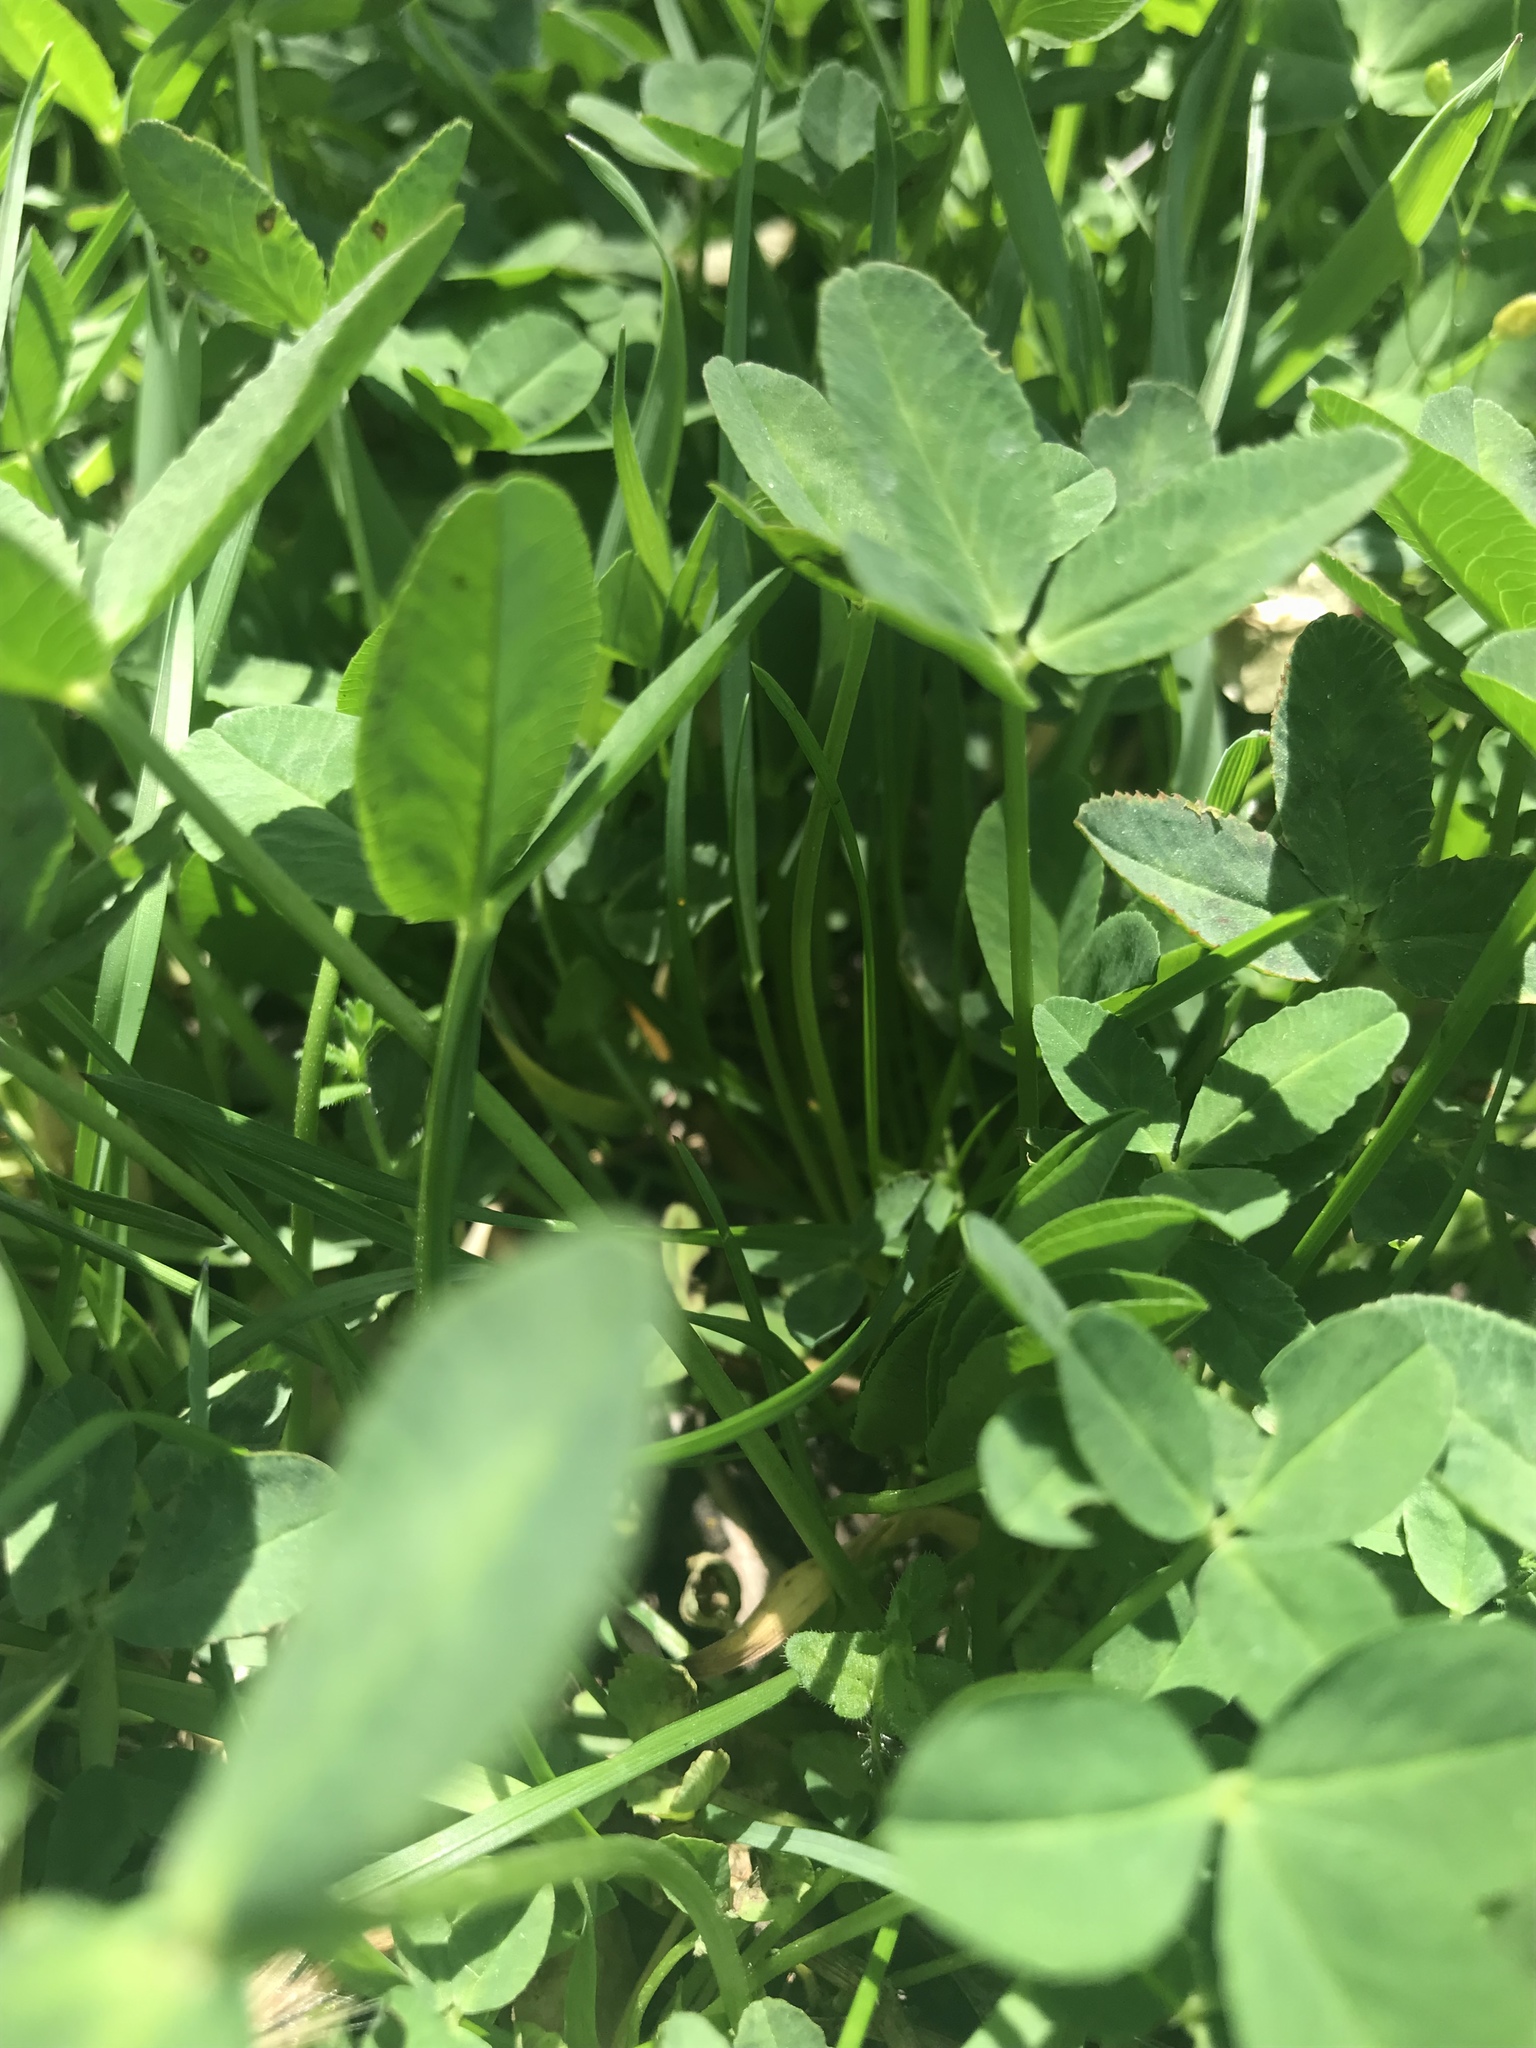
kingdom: Plantae
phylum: Tracheophyta
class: Magnoliopsida
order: Fabales
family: Fabaceae
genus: Trifolium
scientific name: Trifolium repens
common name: White clover
